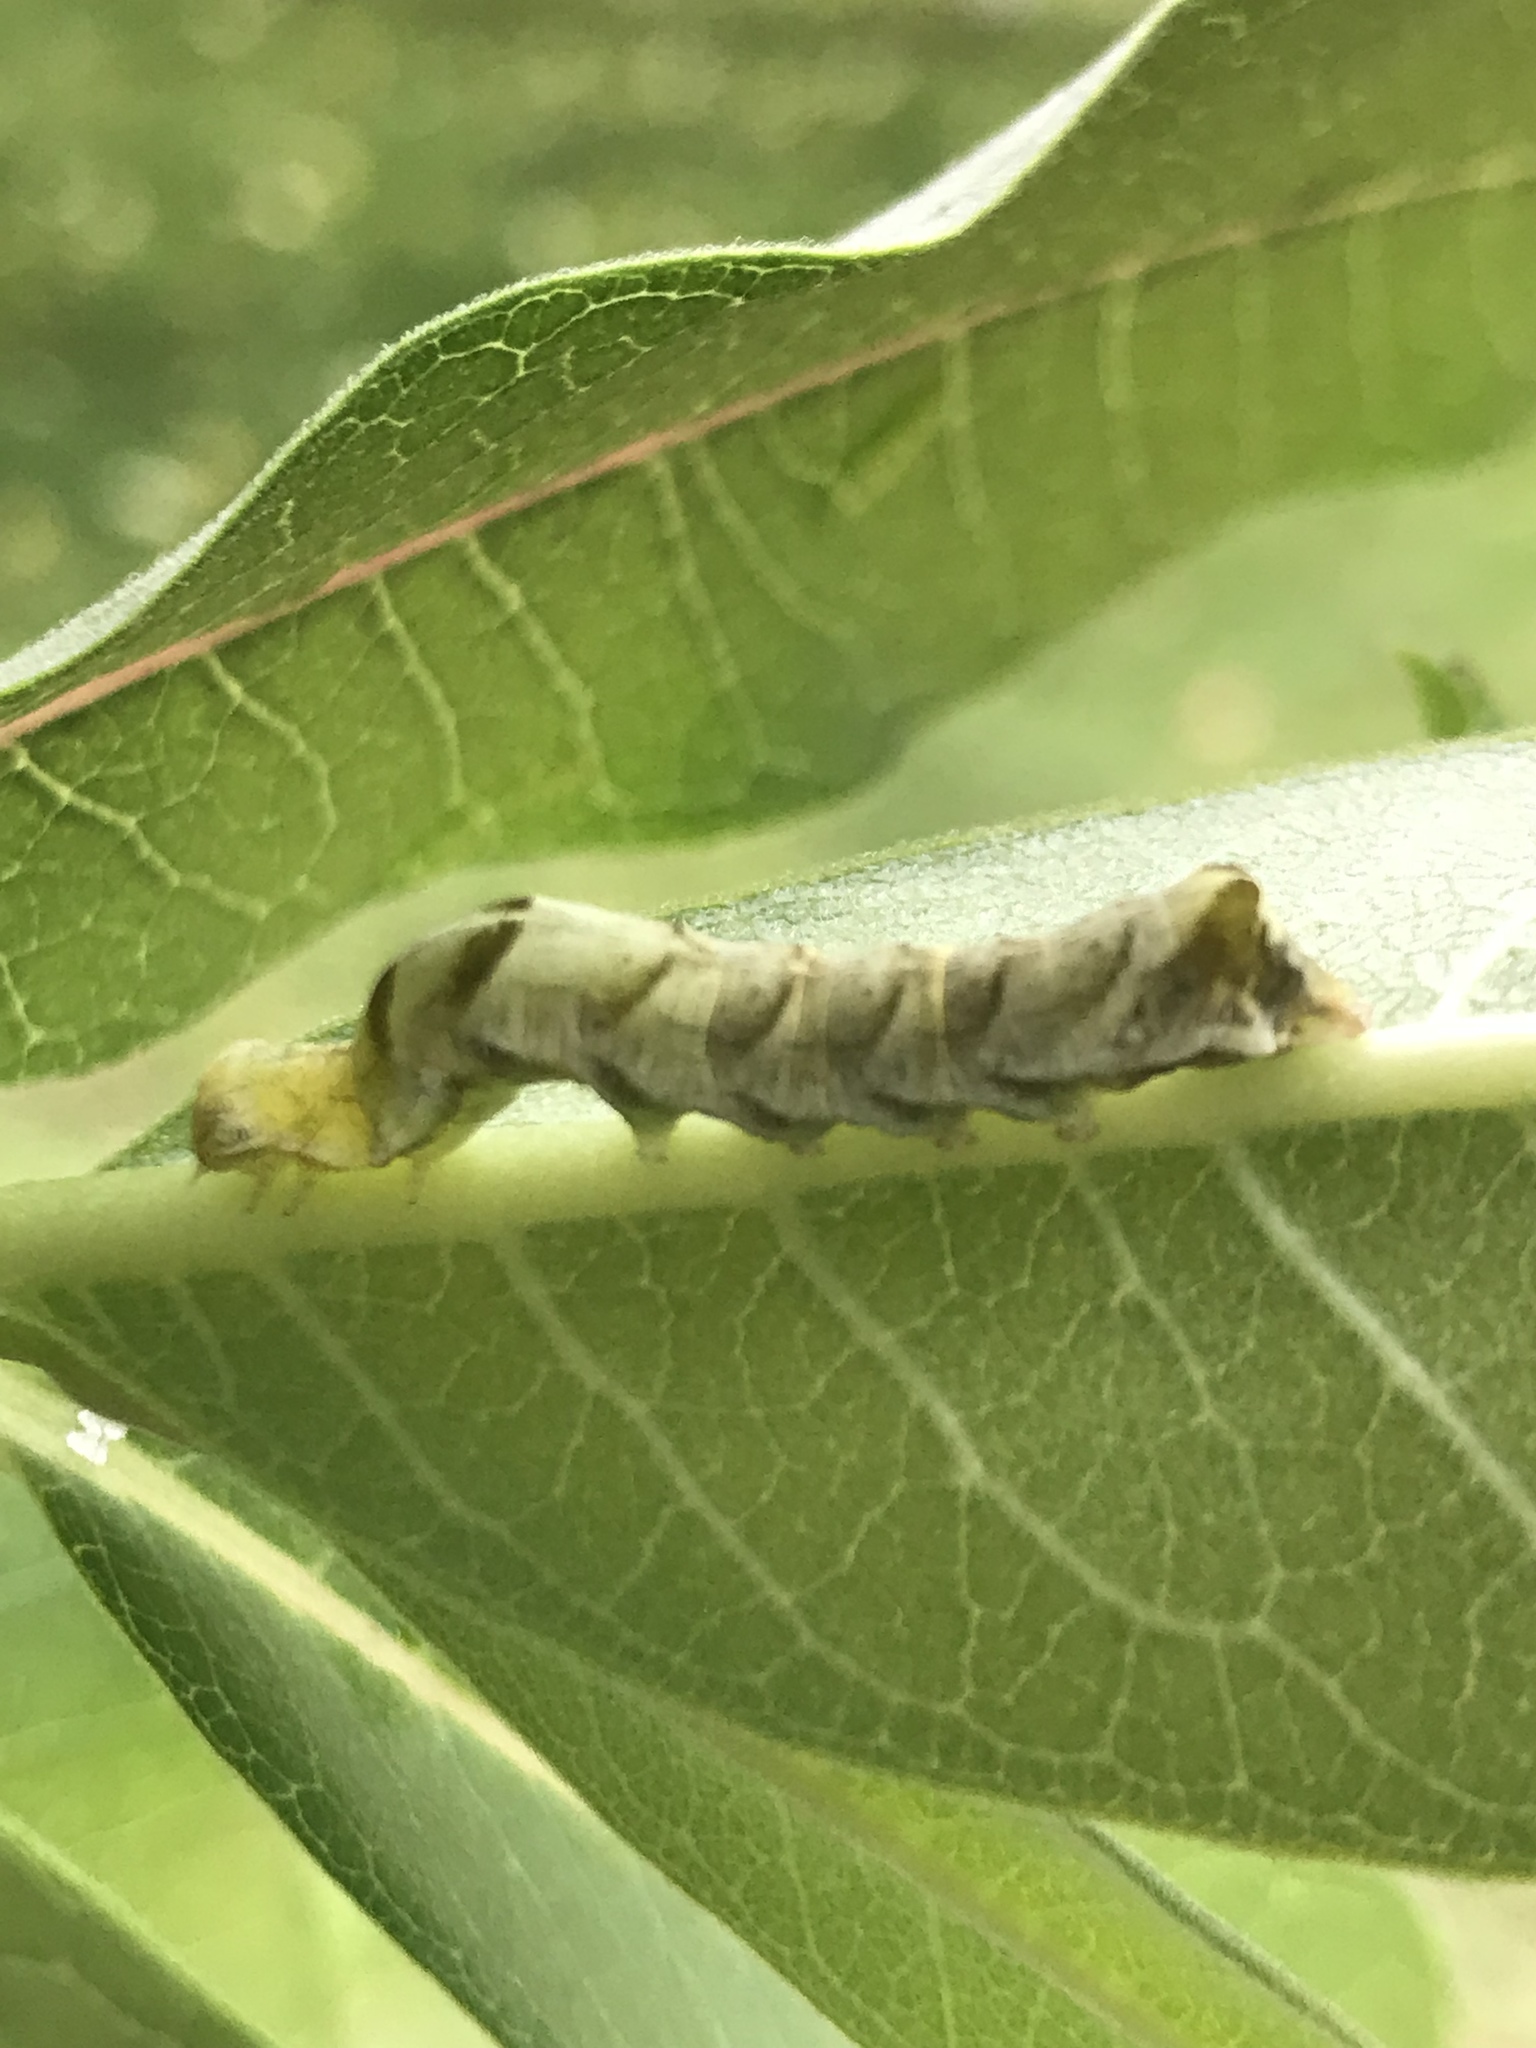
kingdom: Animalia
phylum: Arthropoda
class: Insecta
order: Lepidoptera
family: Noctuidae
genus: Melanchra
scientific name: Melanchra adjuncta
